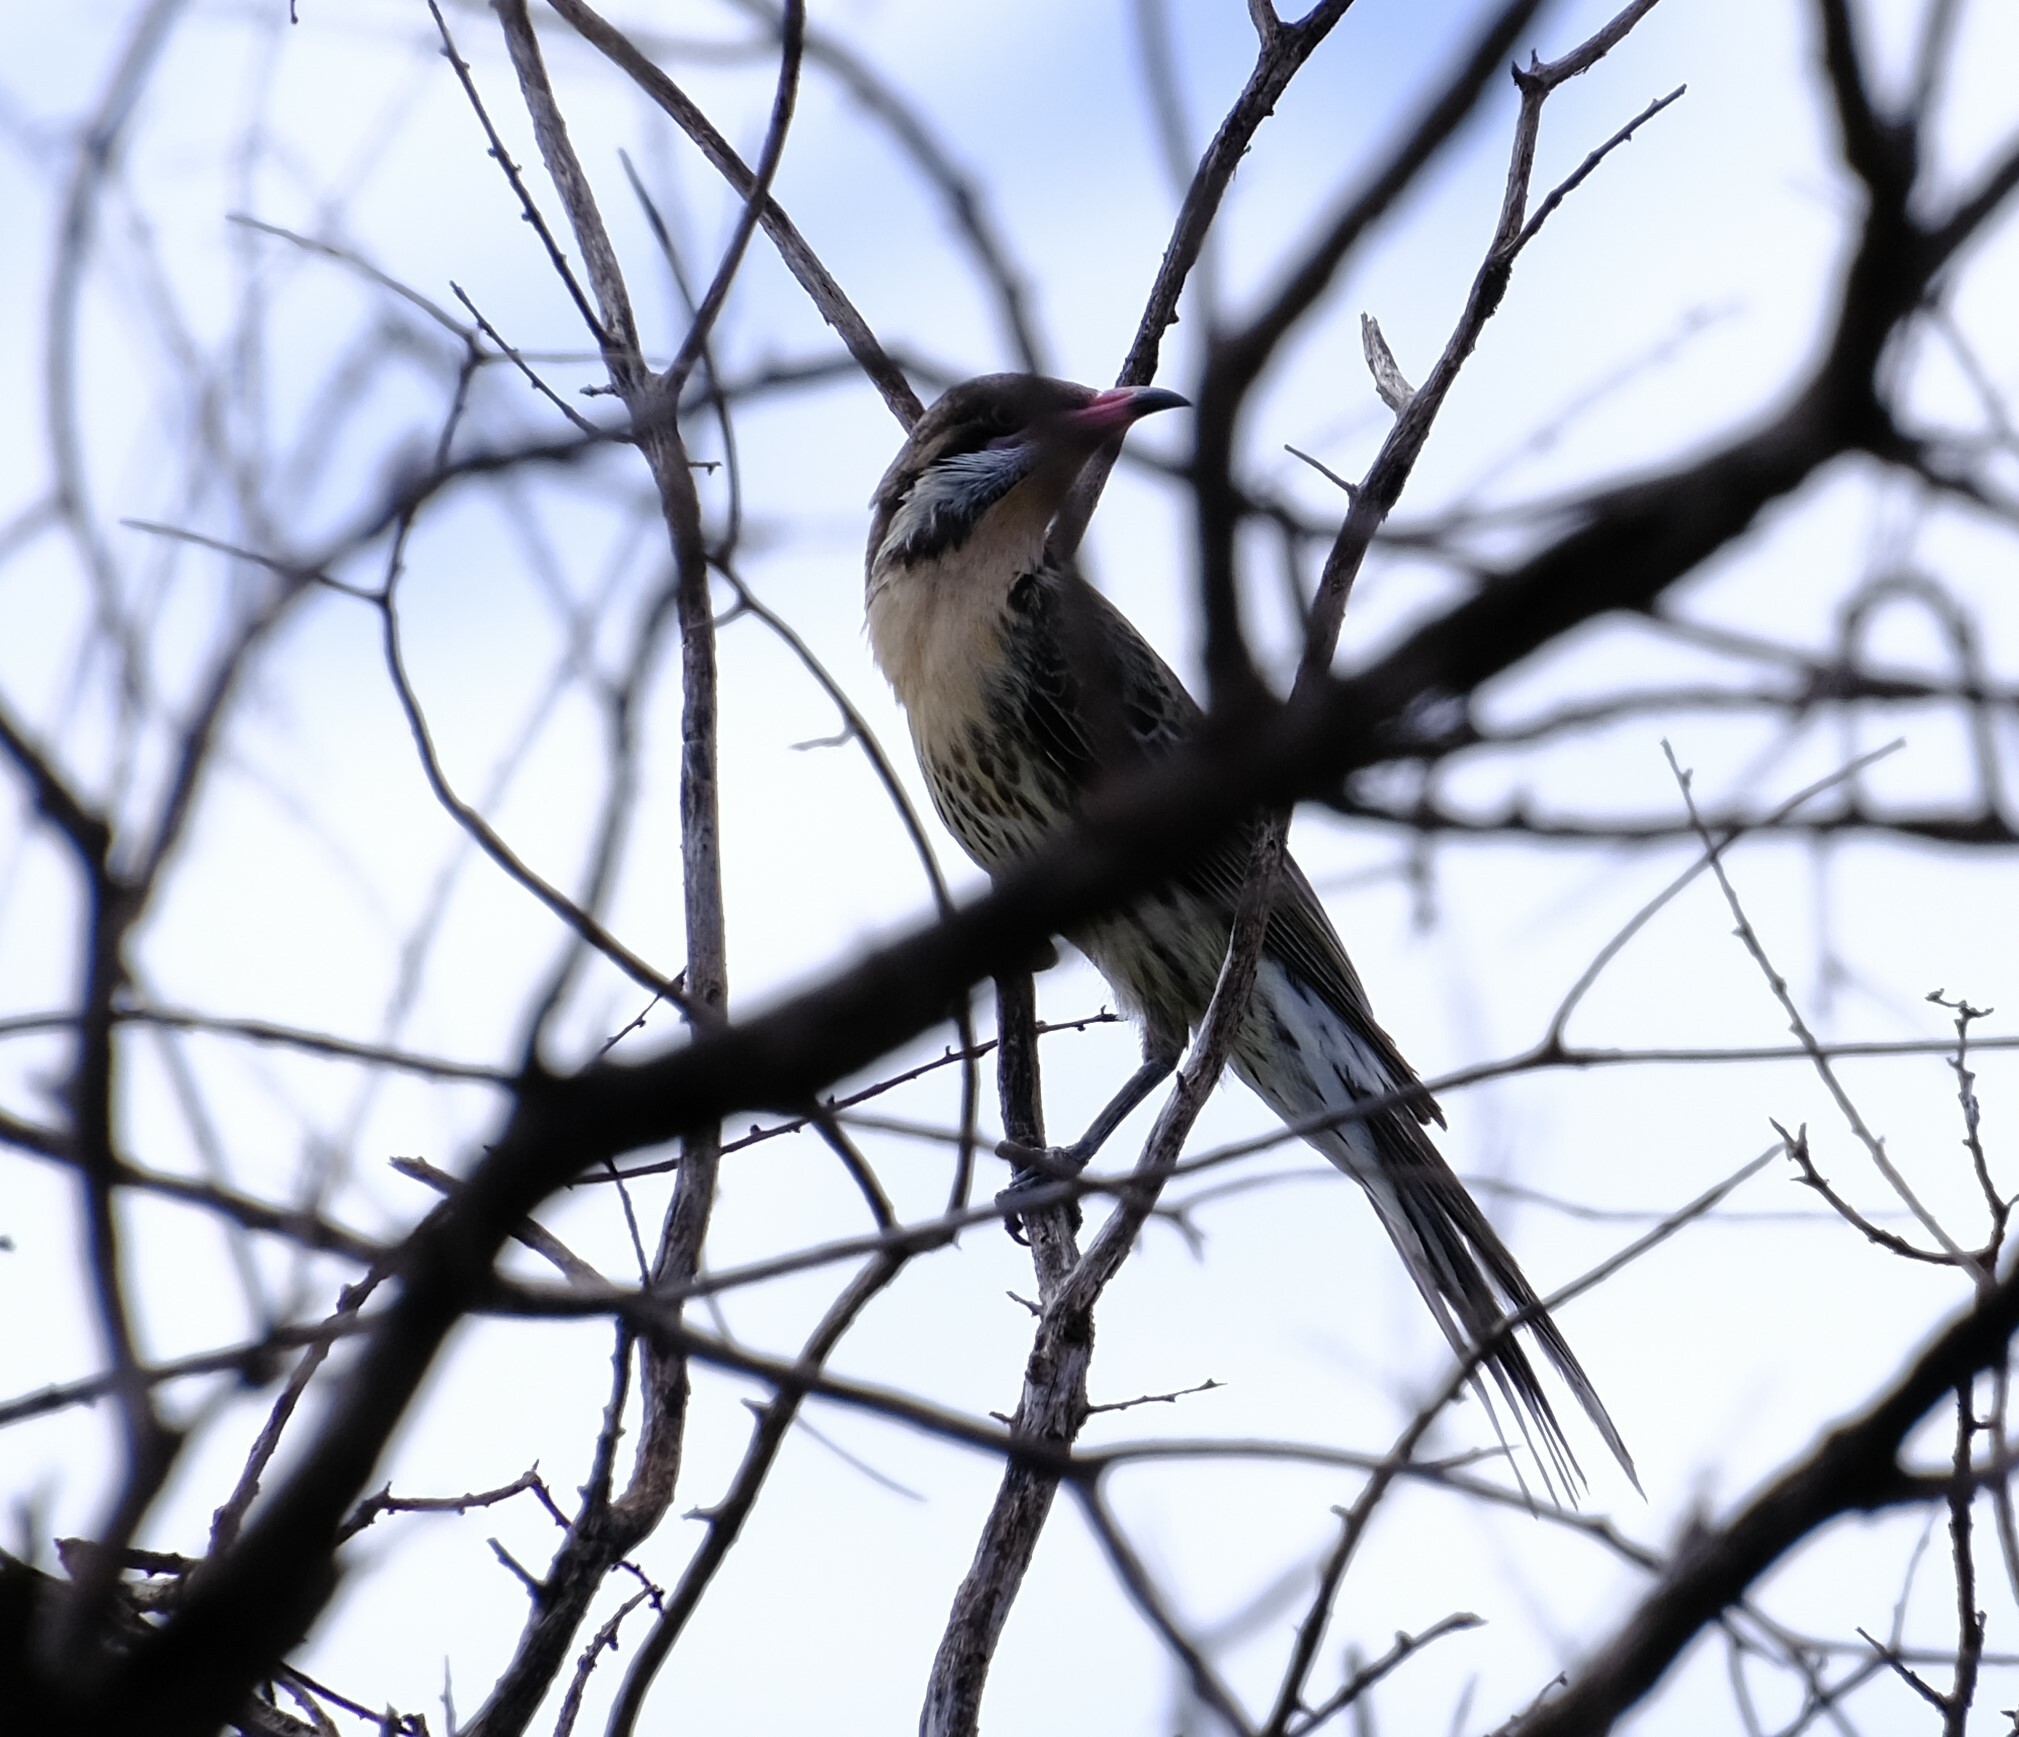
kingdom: Animalia
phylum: Chordata
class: Aves
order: Passeriformes
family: Meliphagidae
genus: Acanthagenys
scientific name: Acanthagenys rufogularis
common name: Spiny-cheeked honeyeater
